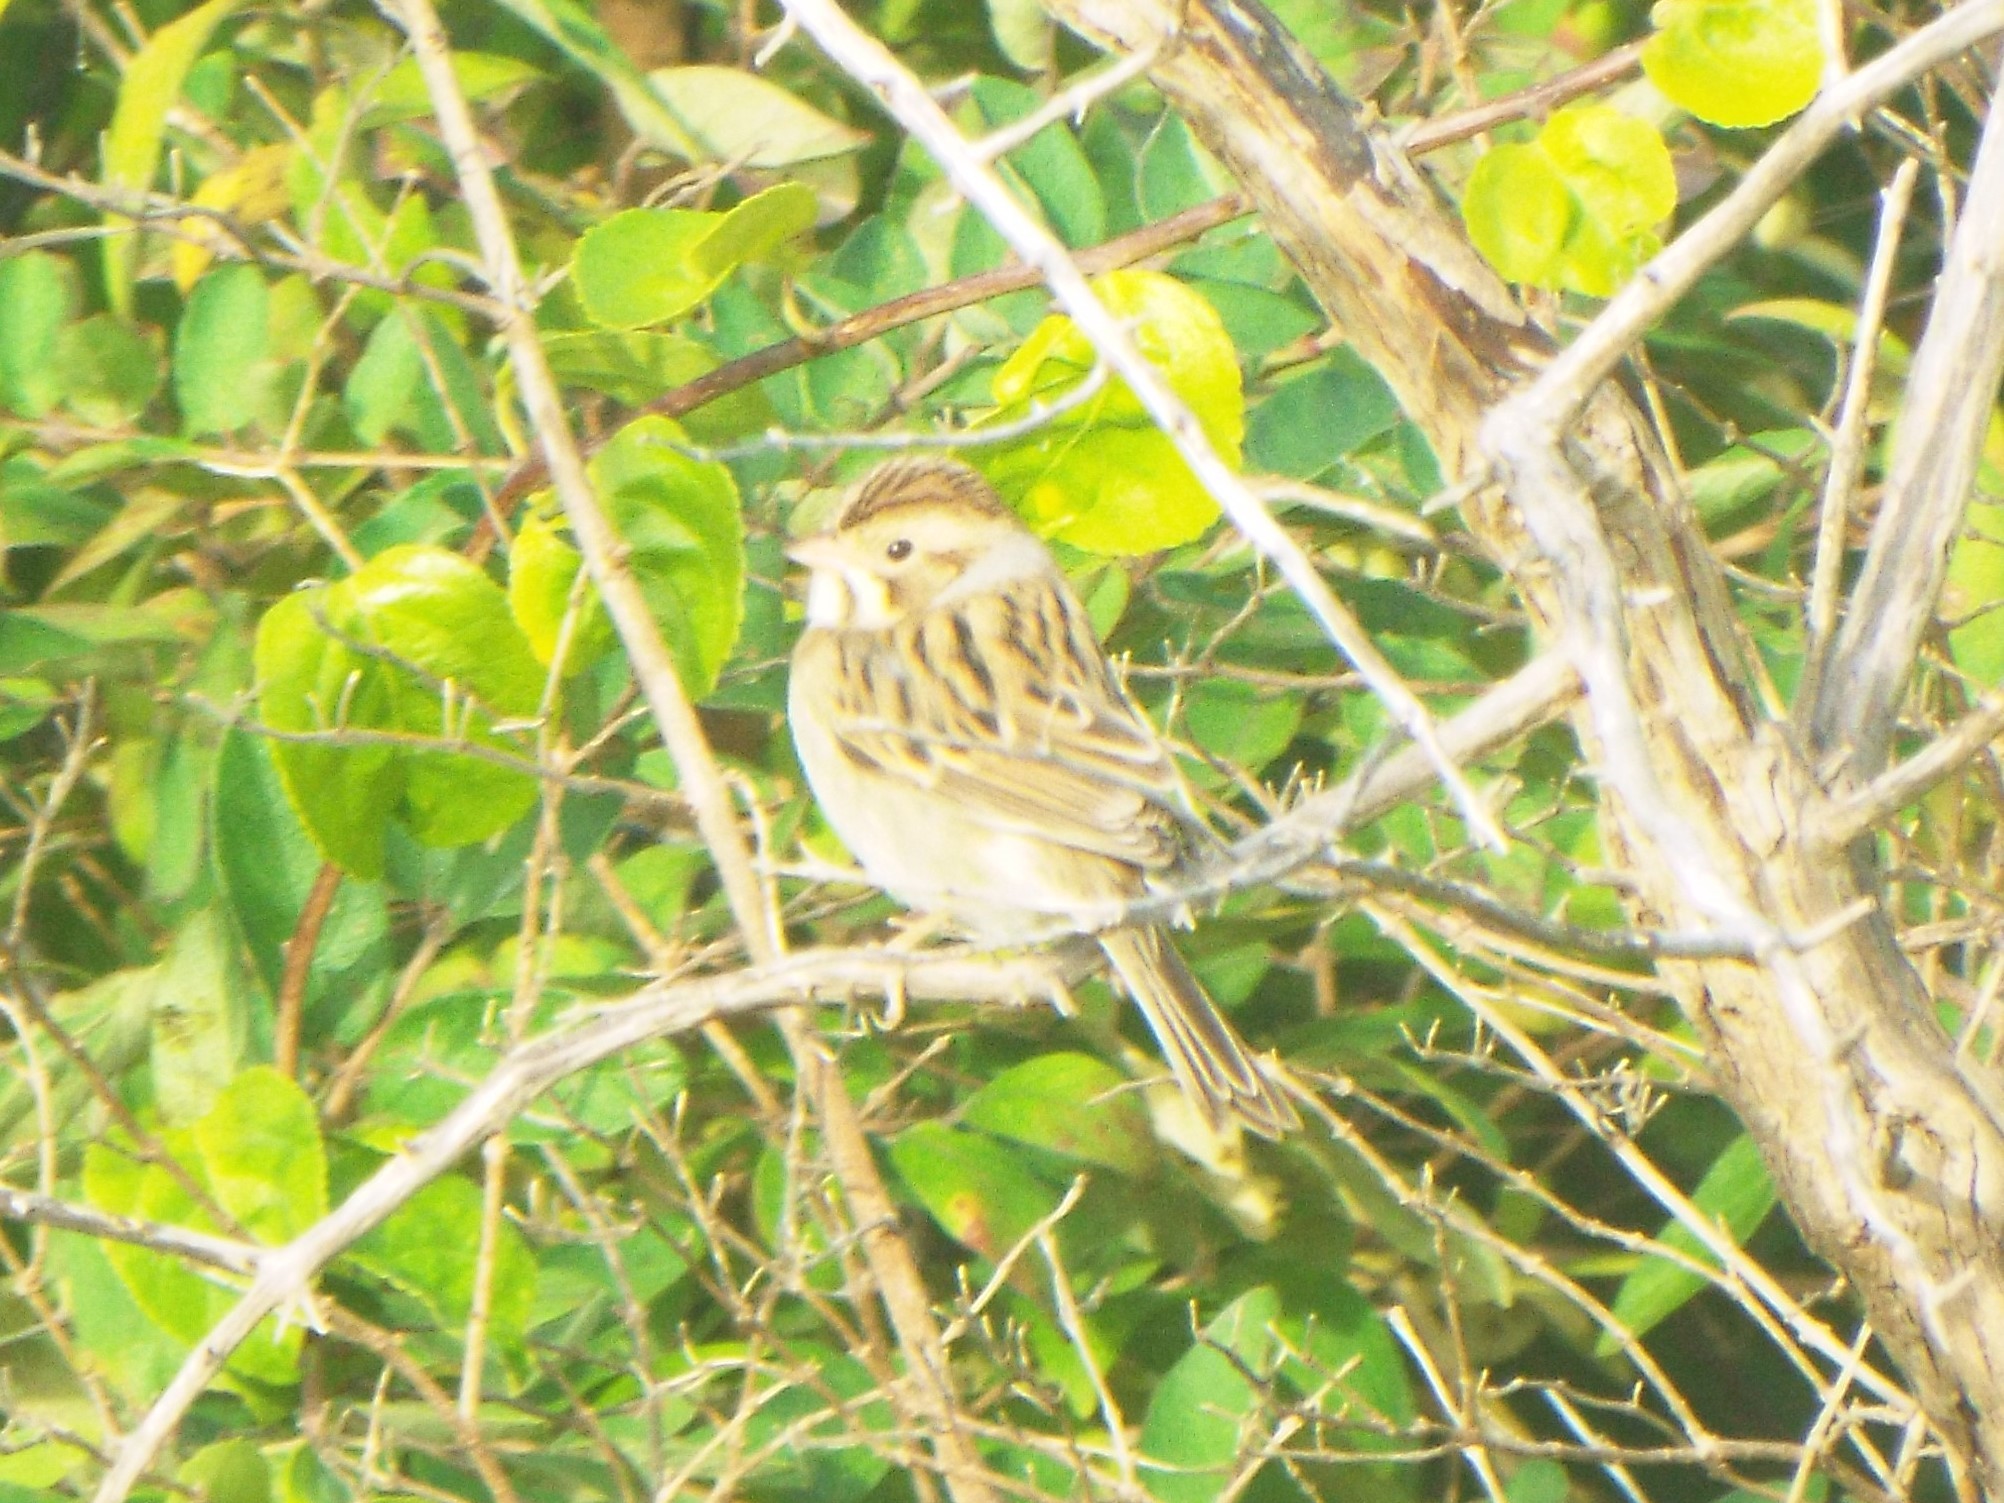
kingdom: Animalia
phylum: Chordata
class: Aves
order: Passeriformes
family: Passerellidae
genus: Spizella
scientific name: Spizella pallida
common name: Clay-colored sparrow
